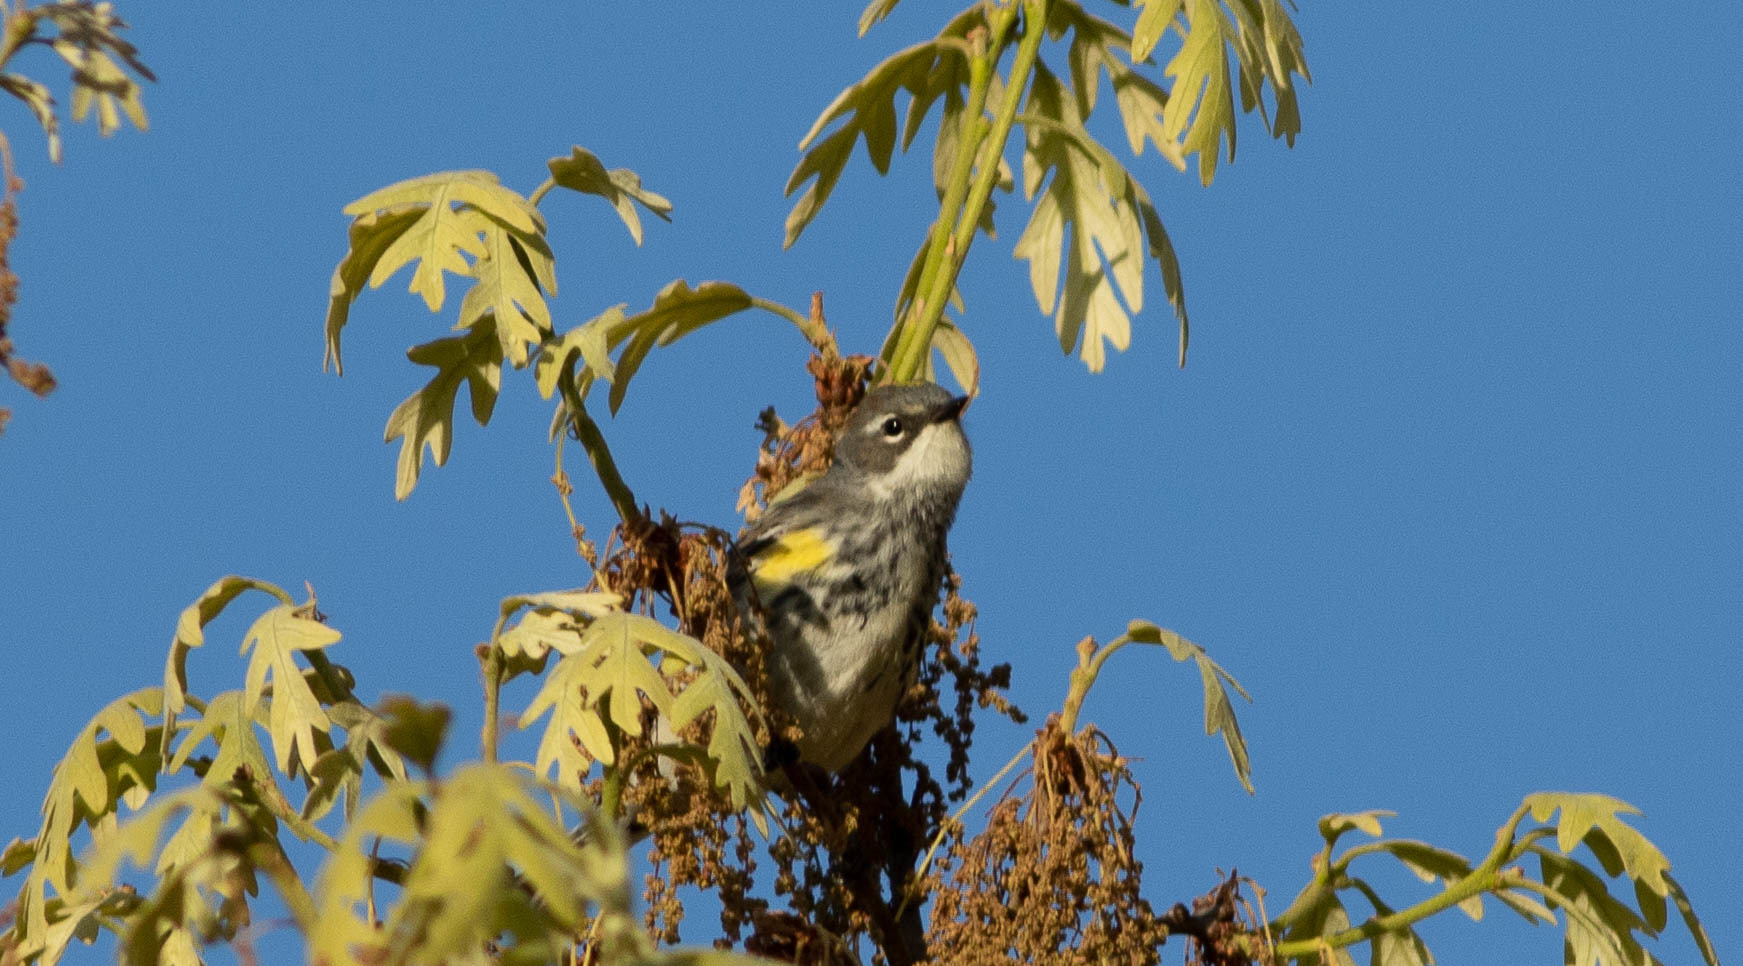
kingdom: Animalia
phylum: Chordata
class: Aves
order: Passeriformes
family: Parulidae
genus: Setophaga
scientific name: Setophaga coronata
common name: Myrtle warbler
